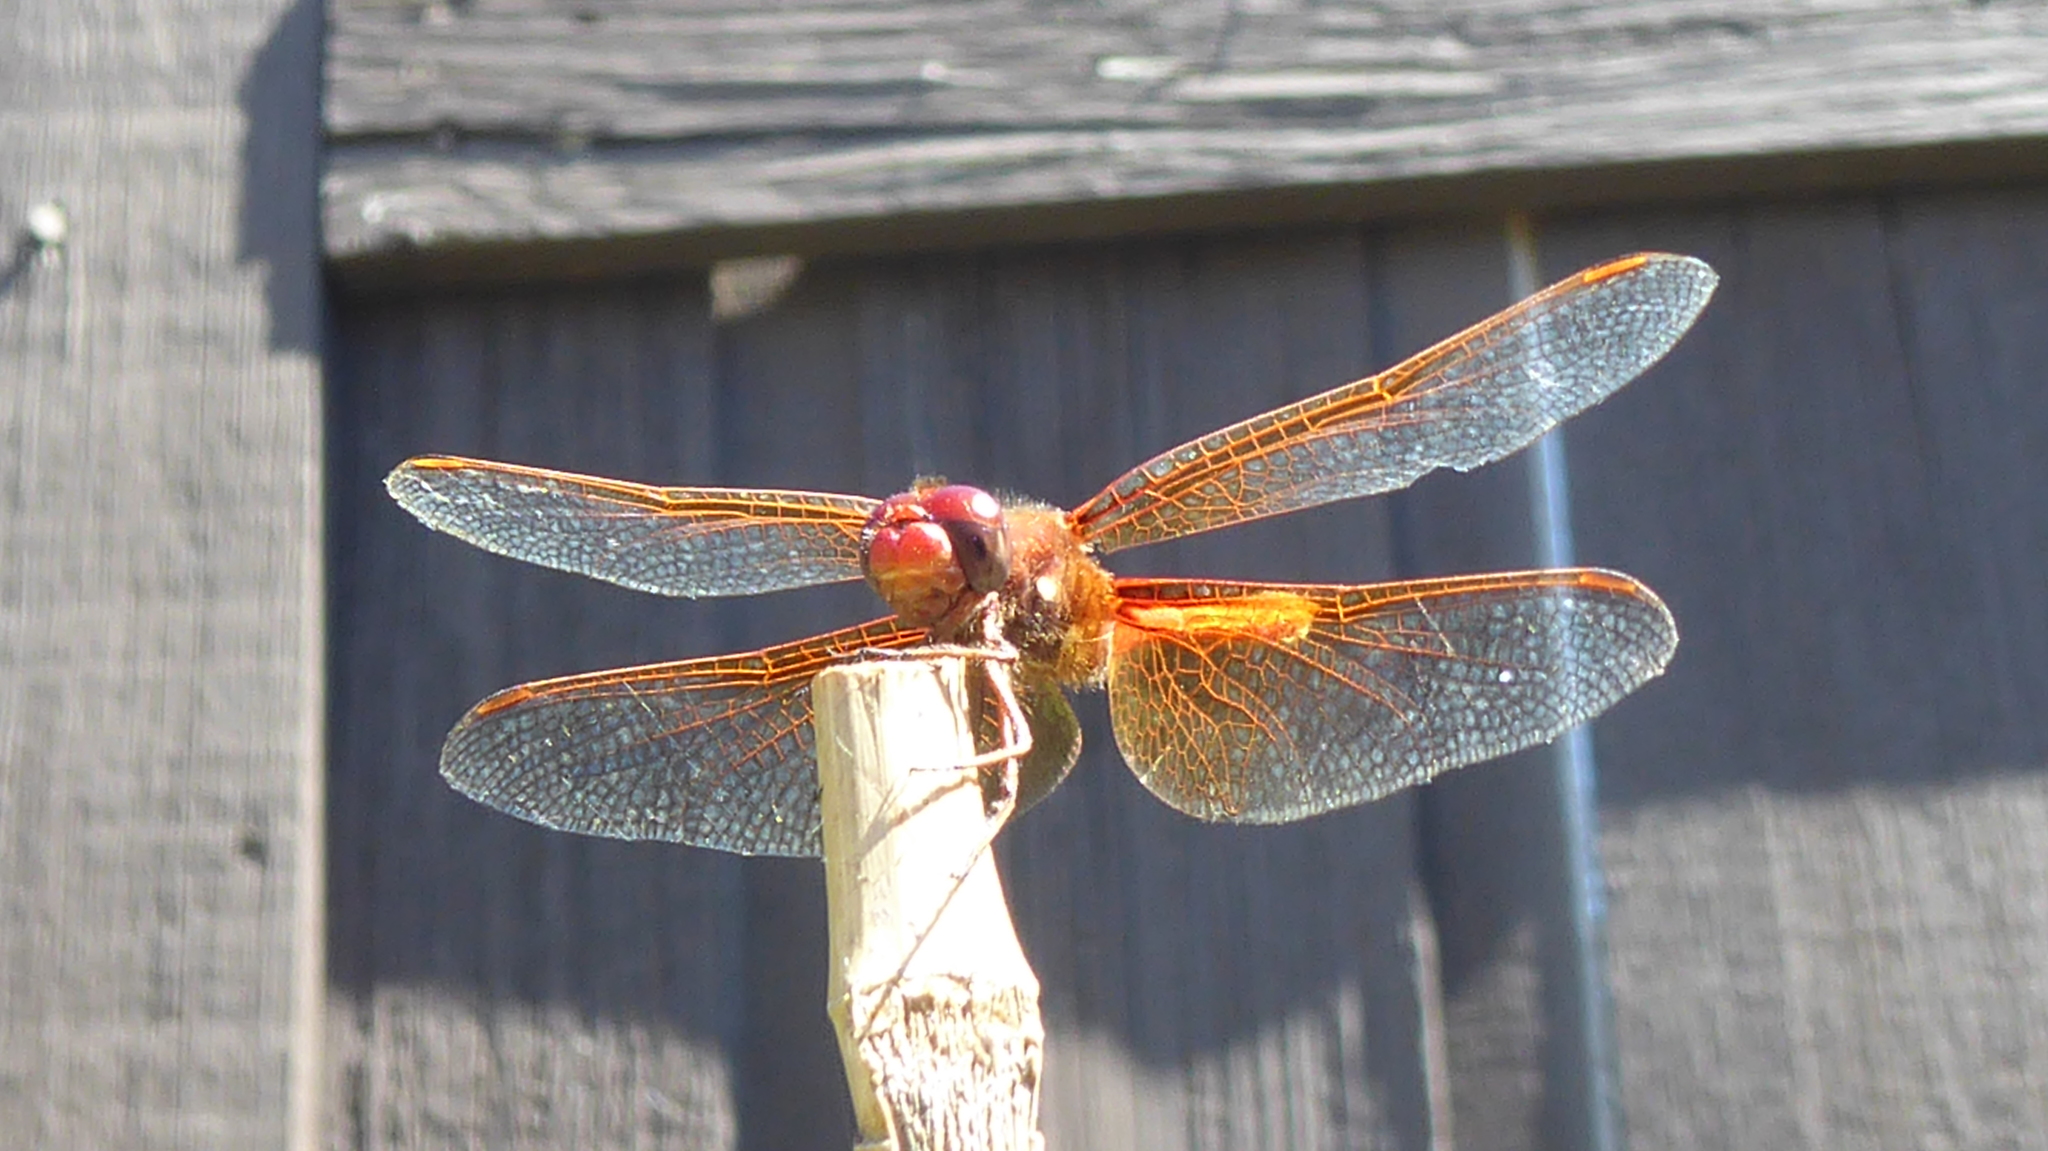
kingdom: Animalia
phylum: Arthropoda
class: Insecta
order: Odonata
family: Libellulidae
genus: Sympetrum
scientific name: Sympetrum illotum
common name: Cardinal meadowhawk
